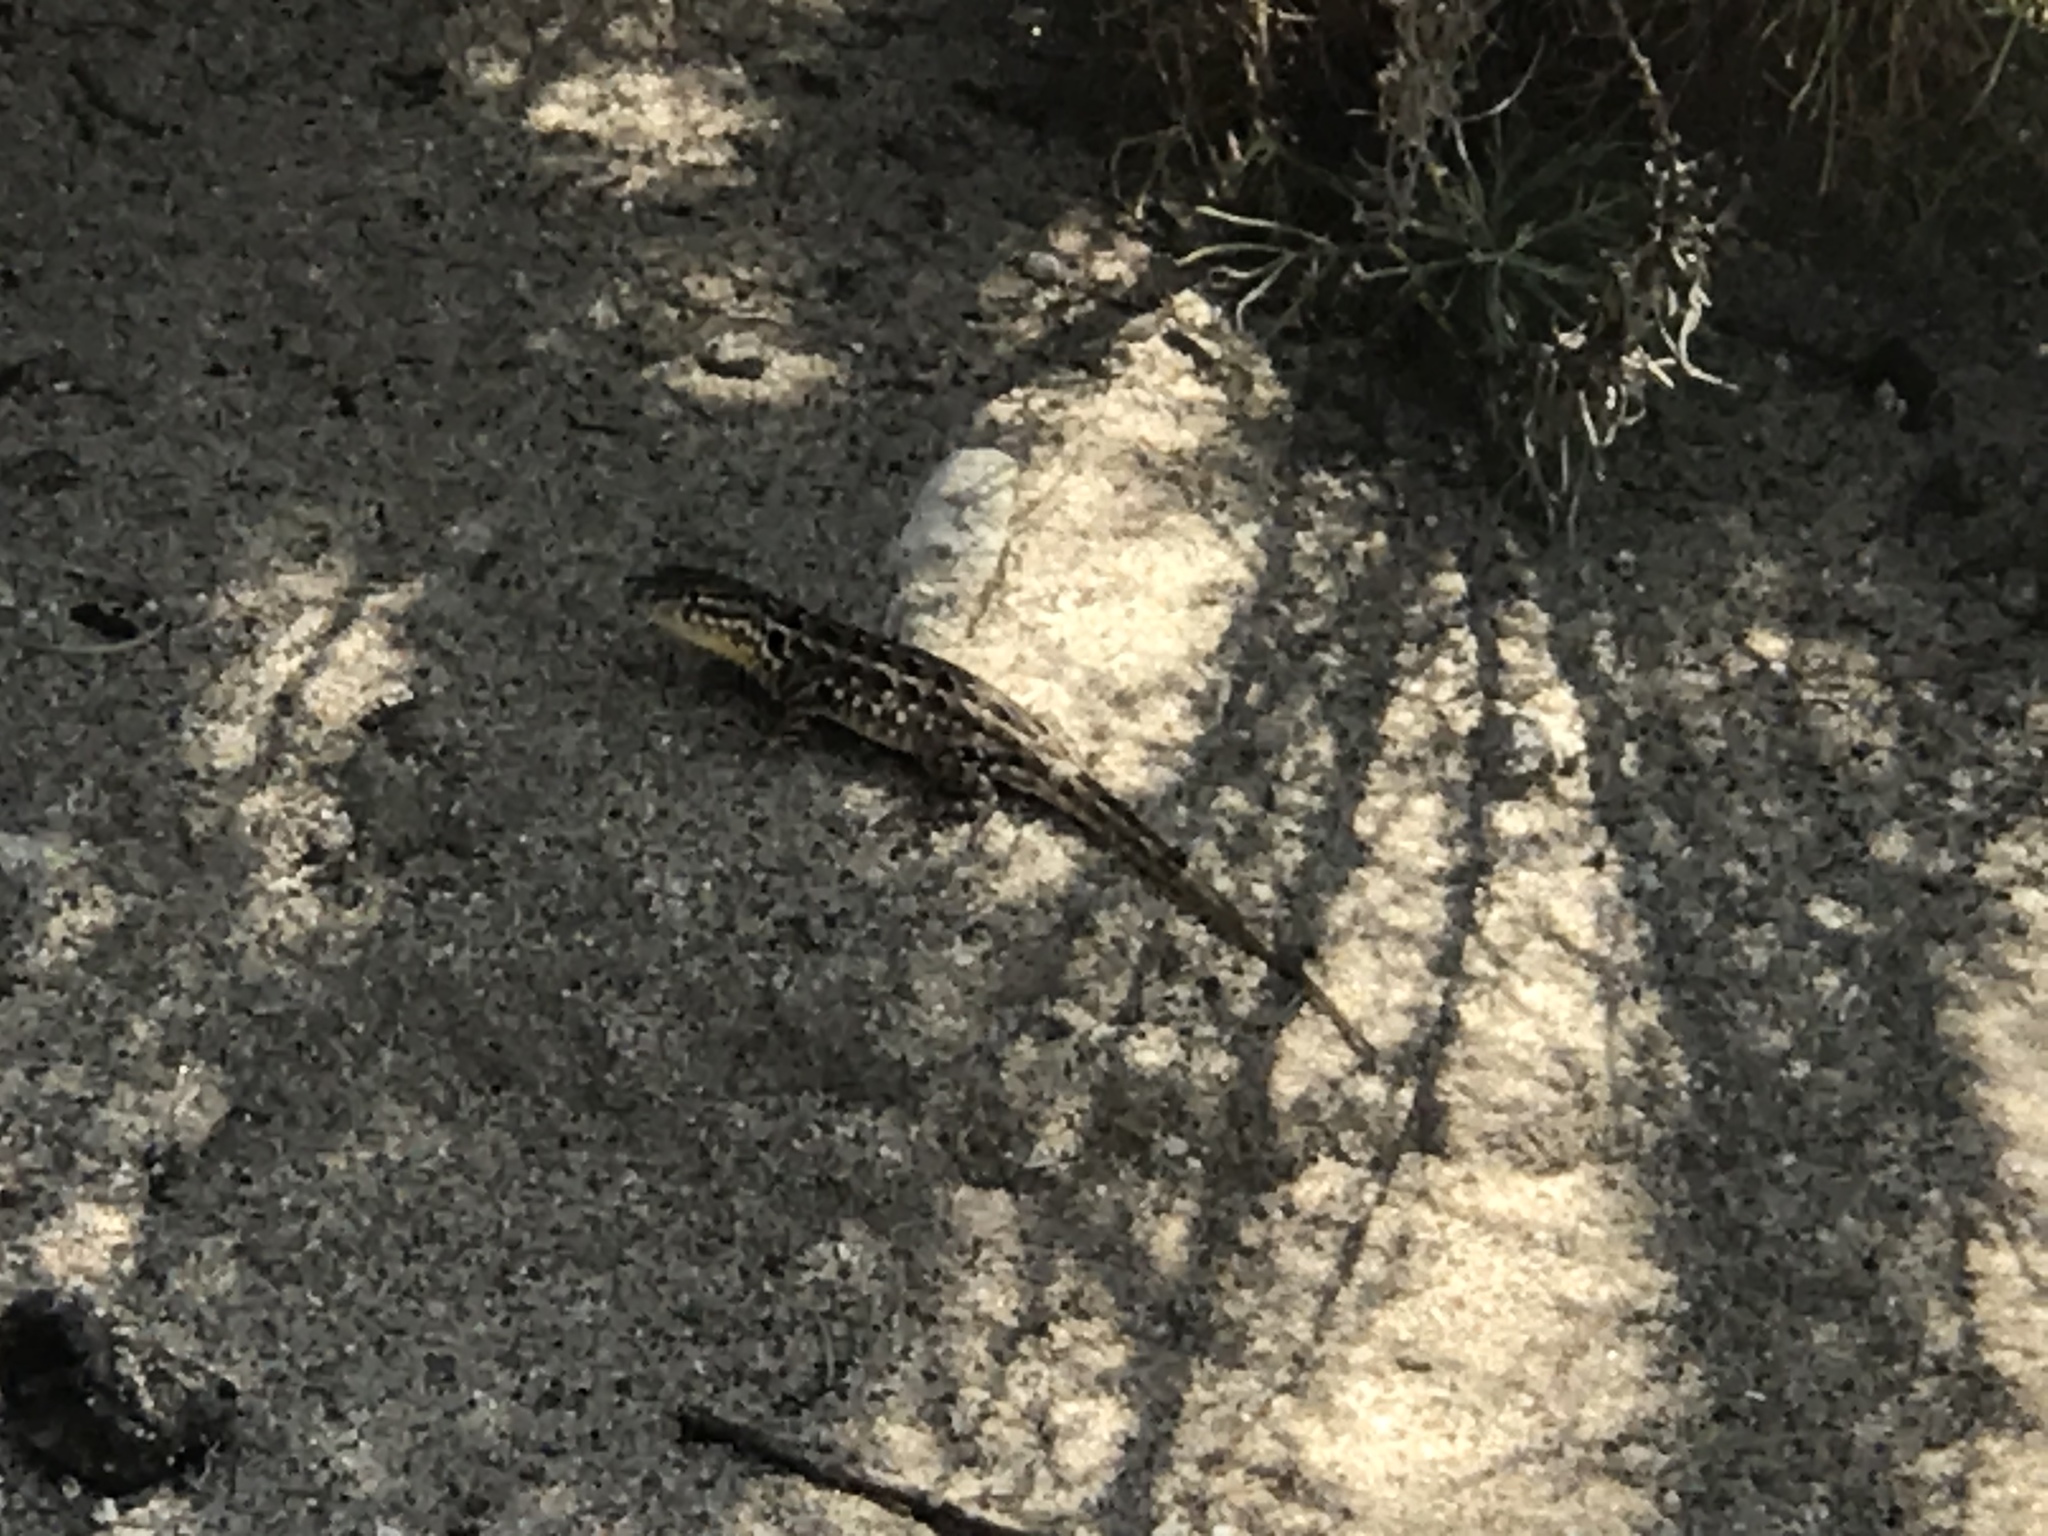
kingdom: Animalia
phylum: Chordata
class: Squamata
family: Phrynosomatidae
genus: Uta
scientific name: Uta stansburiana
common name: Side-blotched lizard
